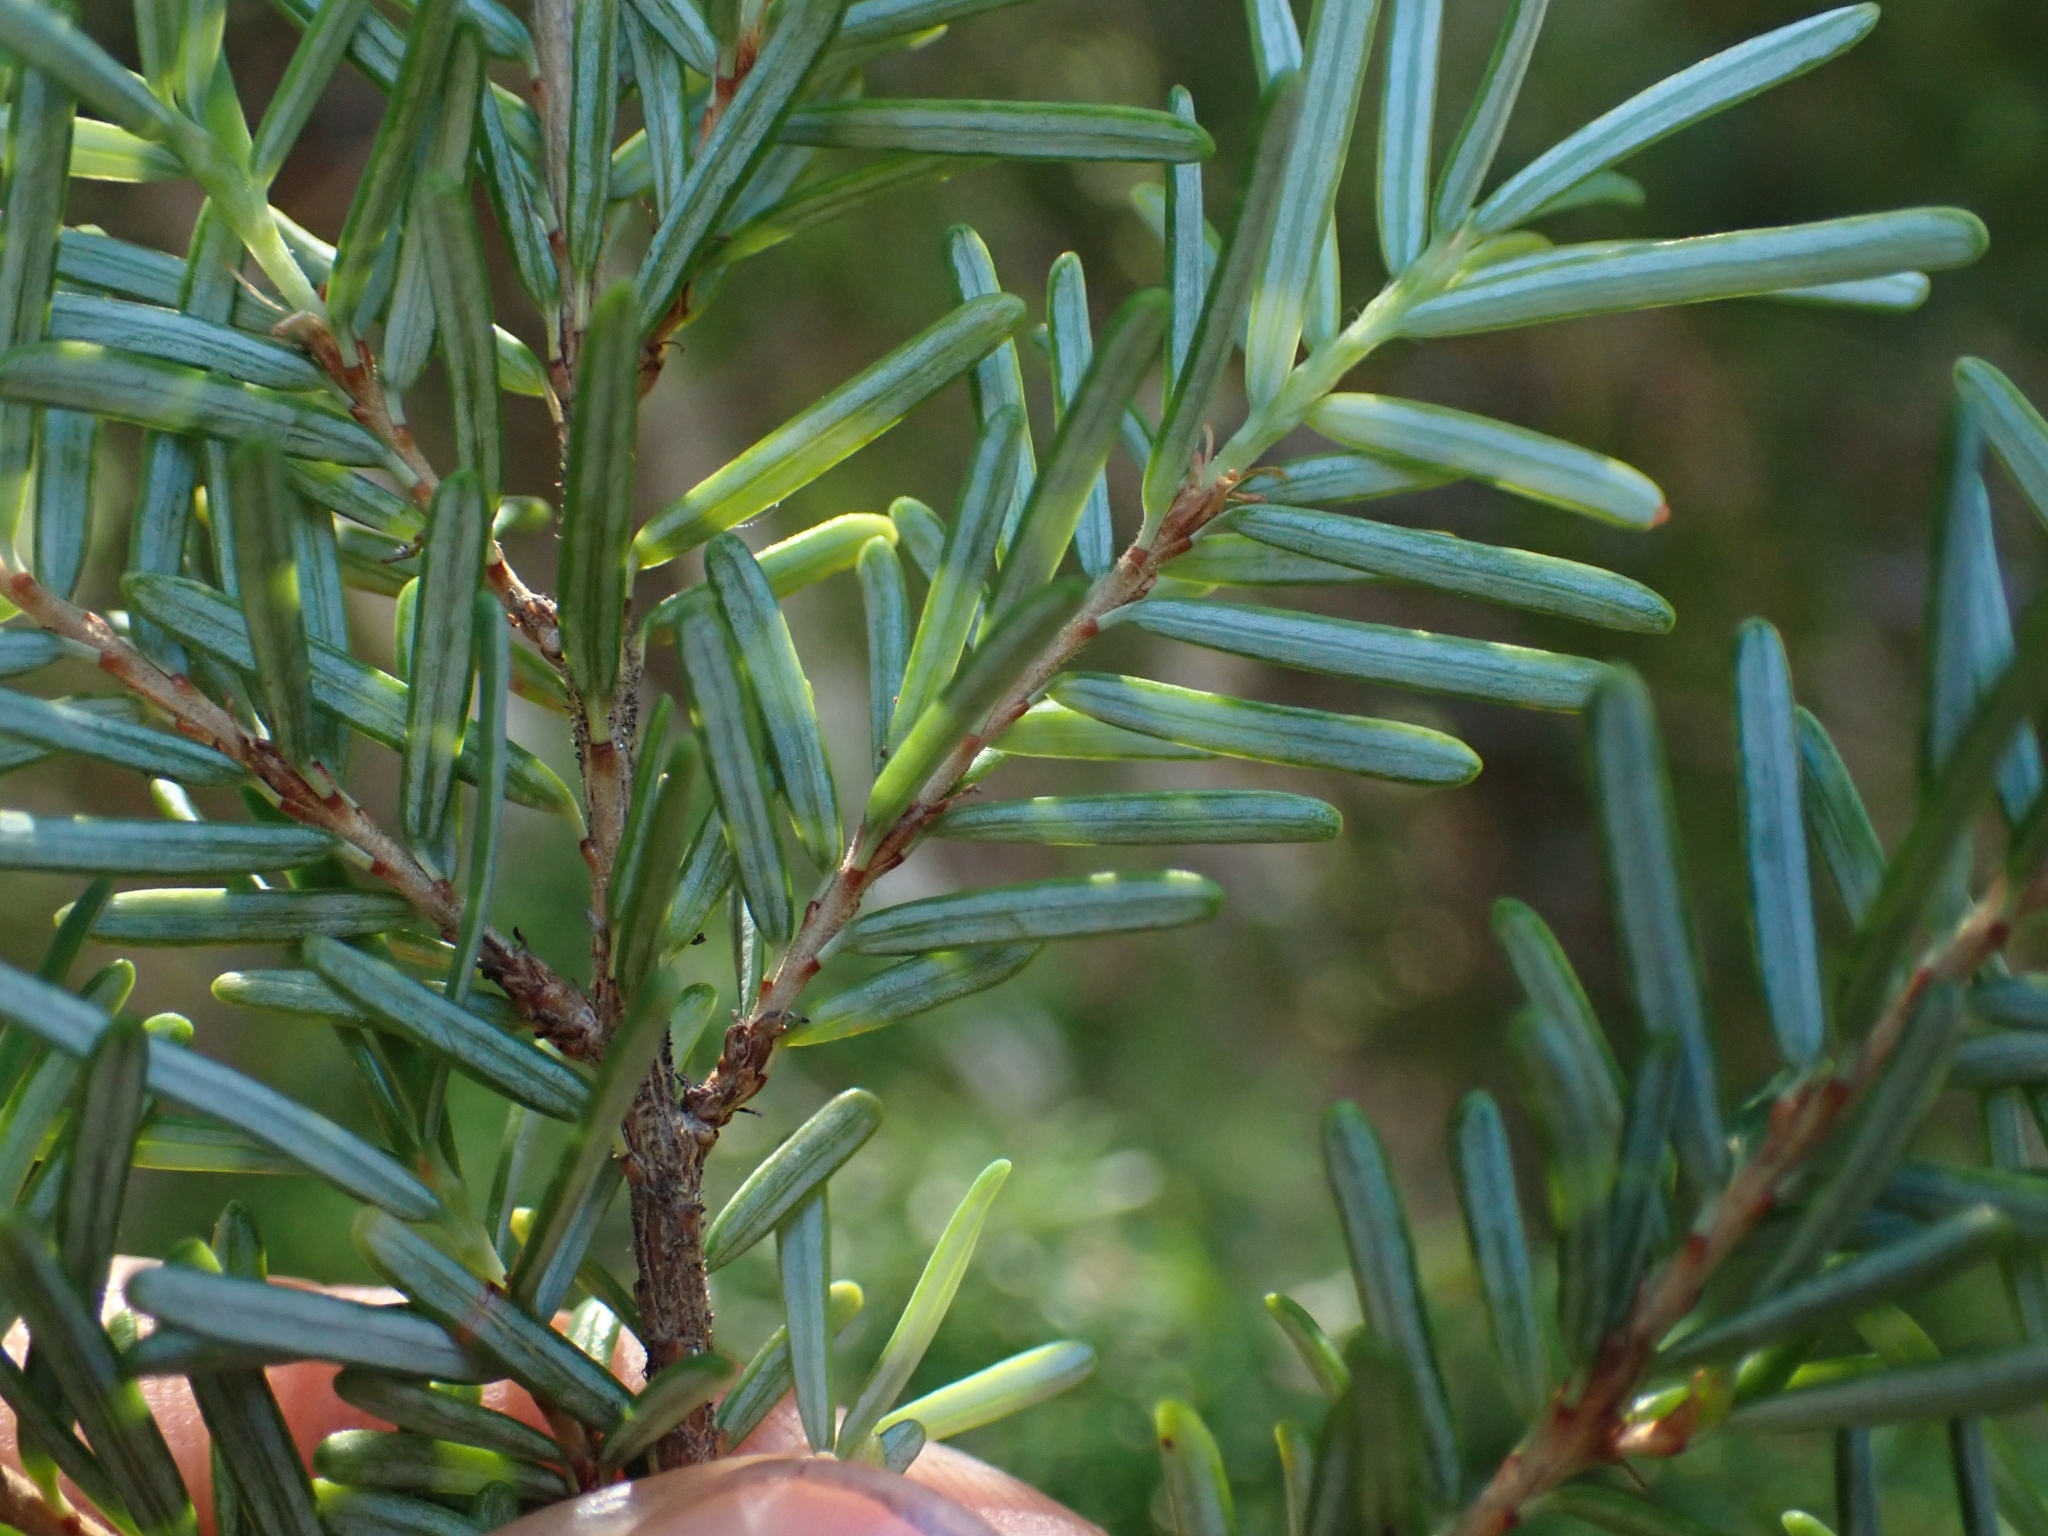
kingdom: Plantae
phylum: Tracheophyta
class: Pinopsida
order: Pinales
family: Pinaceae
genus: Tsuga
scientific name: Tsuga heterophylla
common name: Western hemlock
